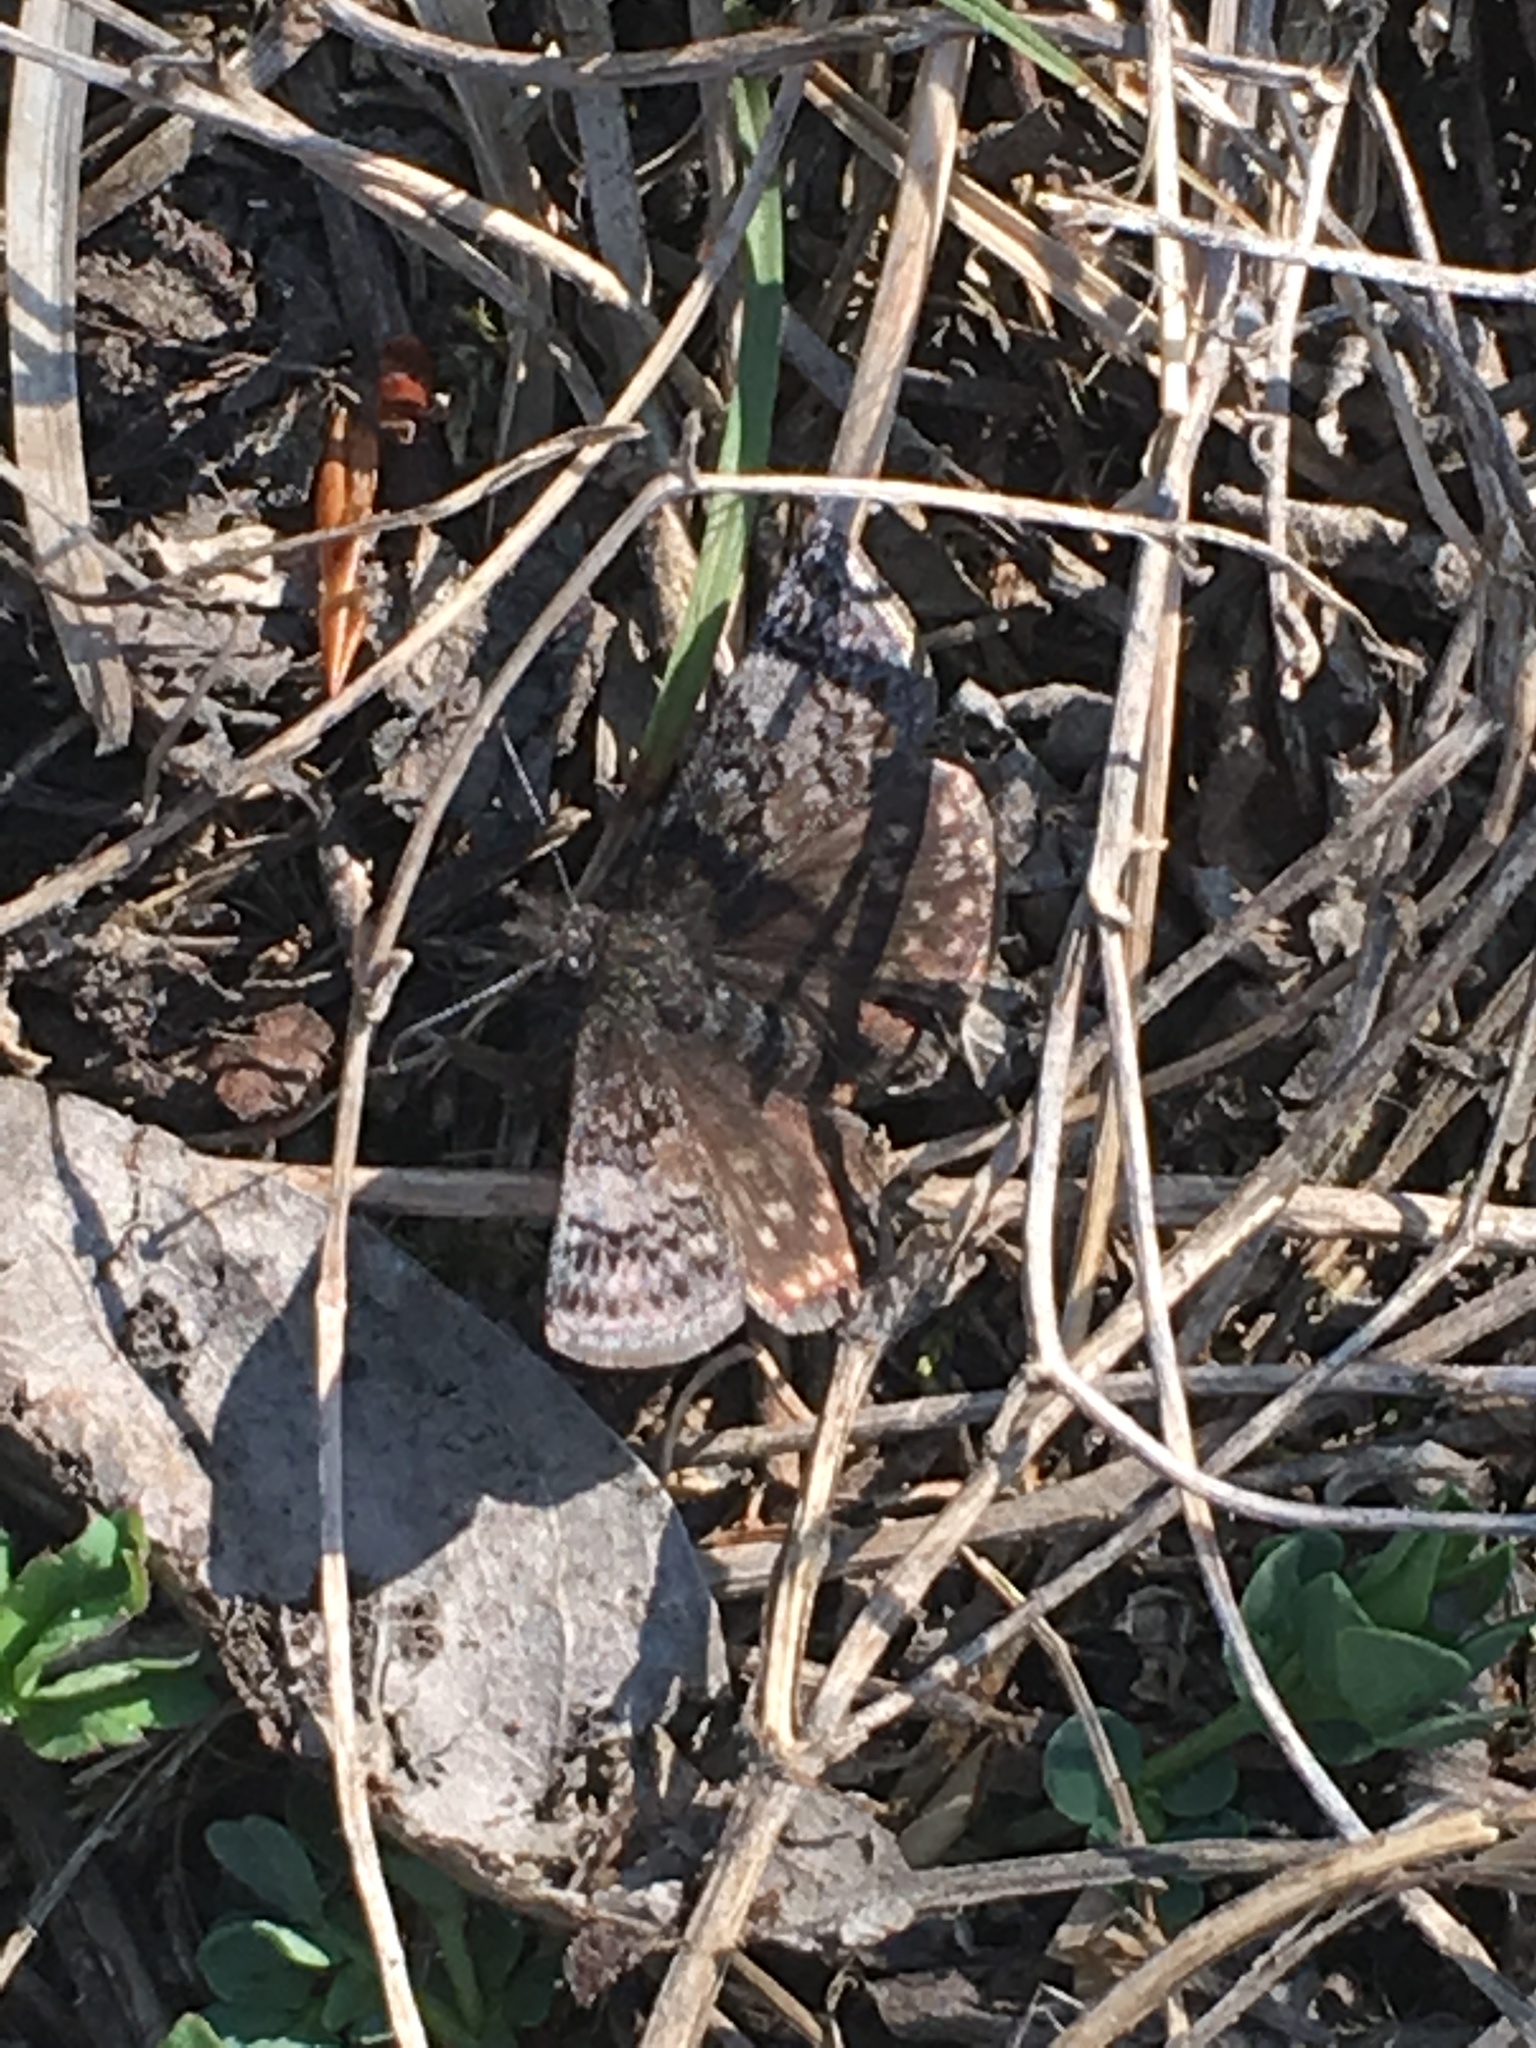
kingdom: Animalia
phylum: Arthropoda
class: Insecta
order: Lepidoptera
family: Hesperiidae
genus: Erynnis
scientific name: Erynnis icelus
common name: Dreamy duskywing
